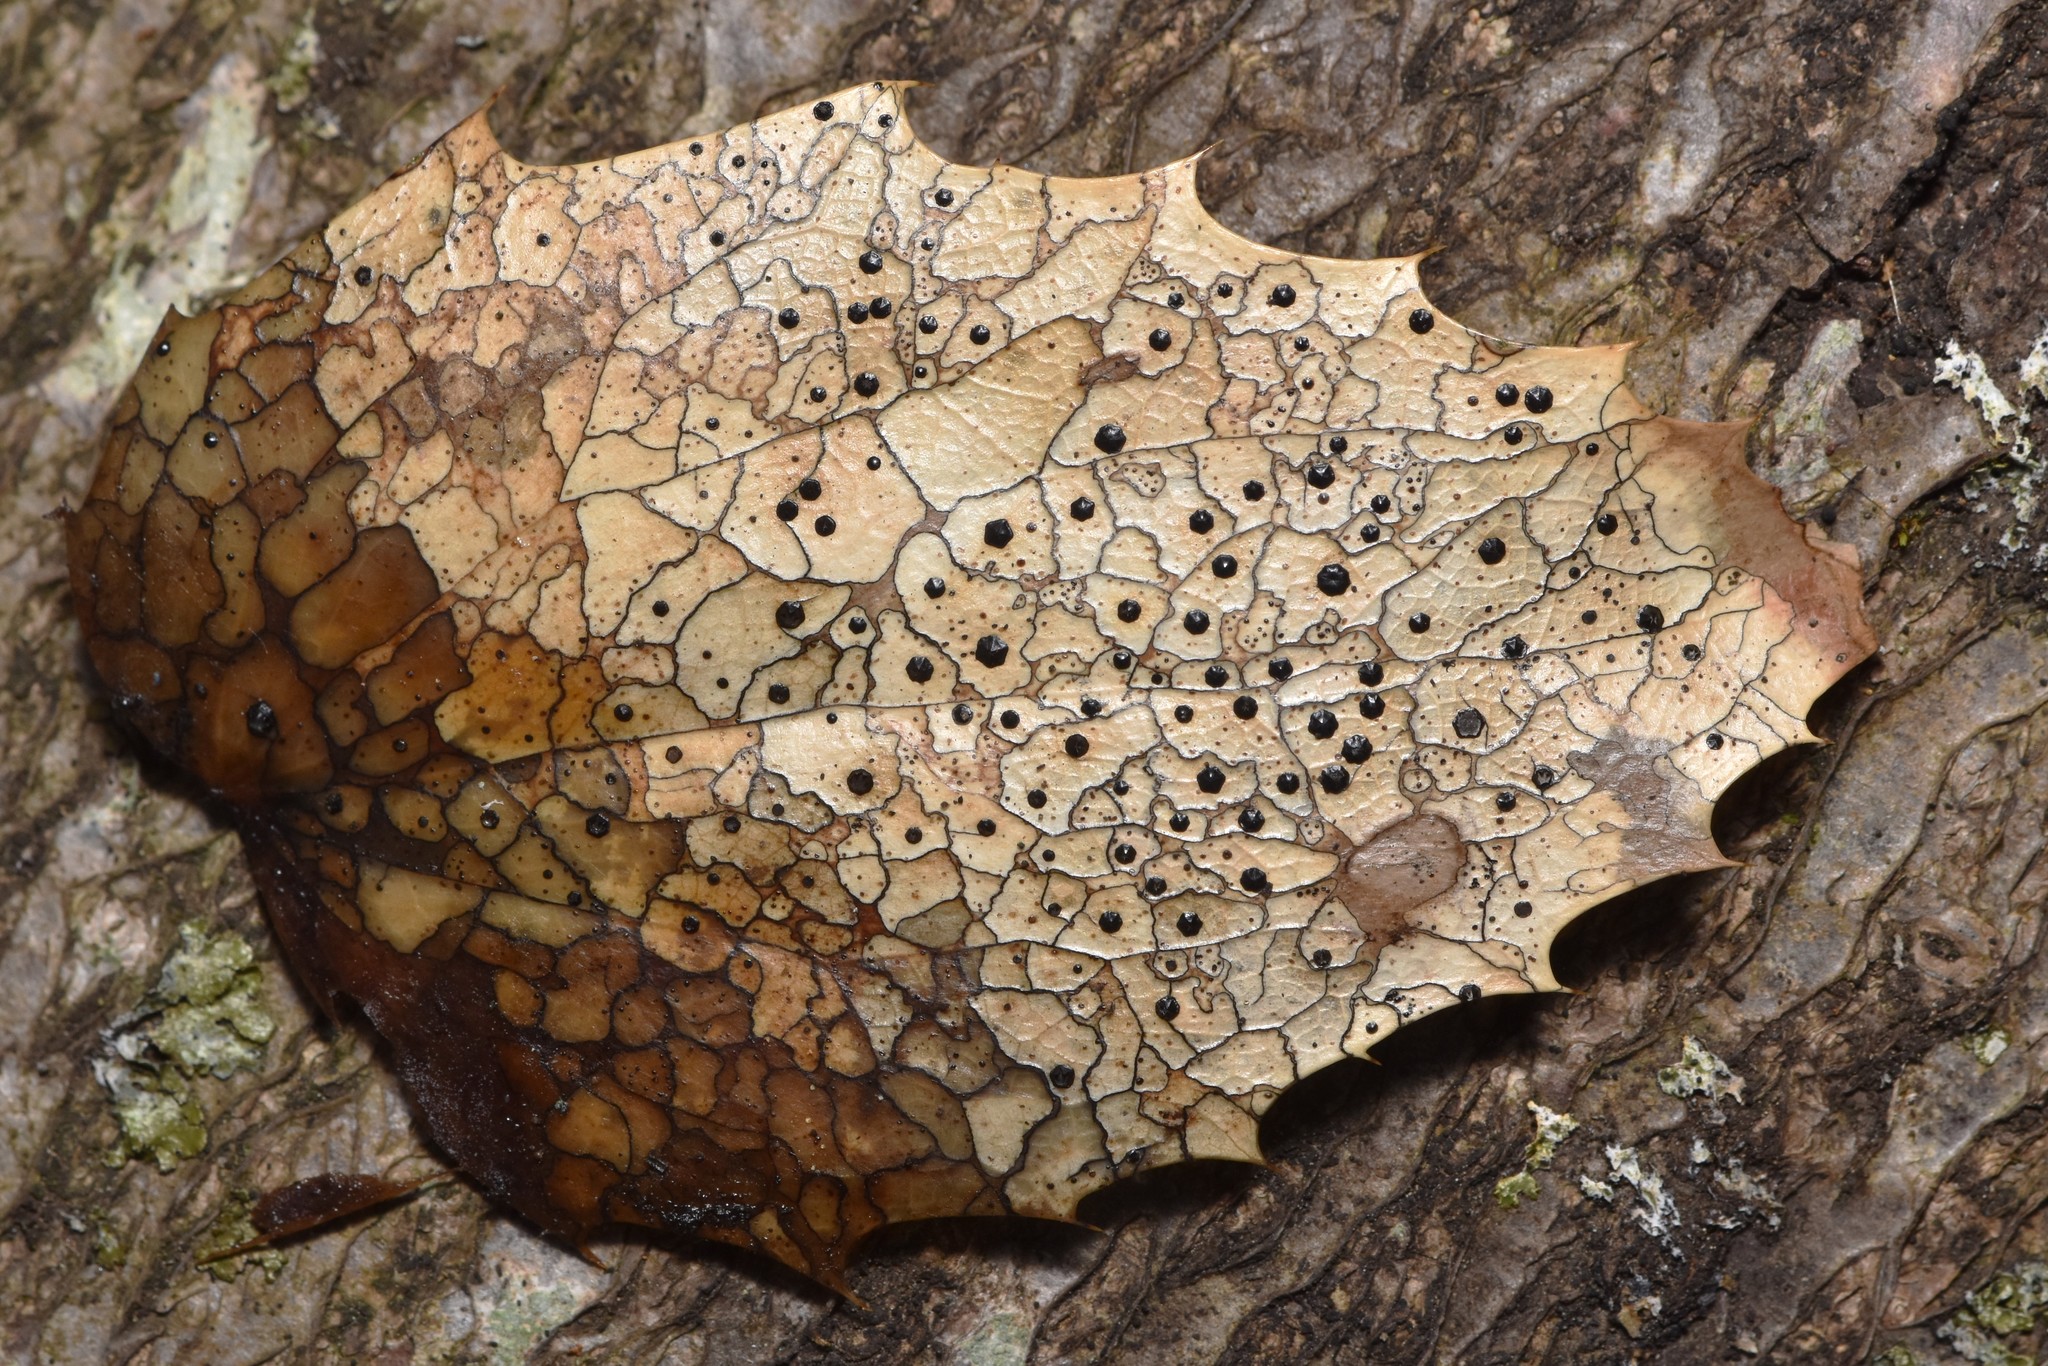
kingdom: Fungi
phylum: Ascomycota
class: Leotiomycetes
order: Rhytismatales
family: Rhytismataceae
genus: Coccomyces
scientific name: Coccomyces dentatus
